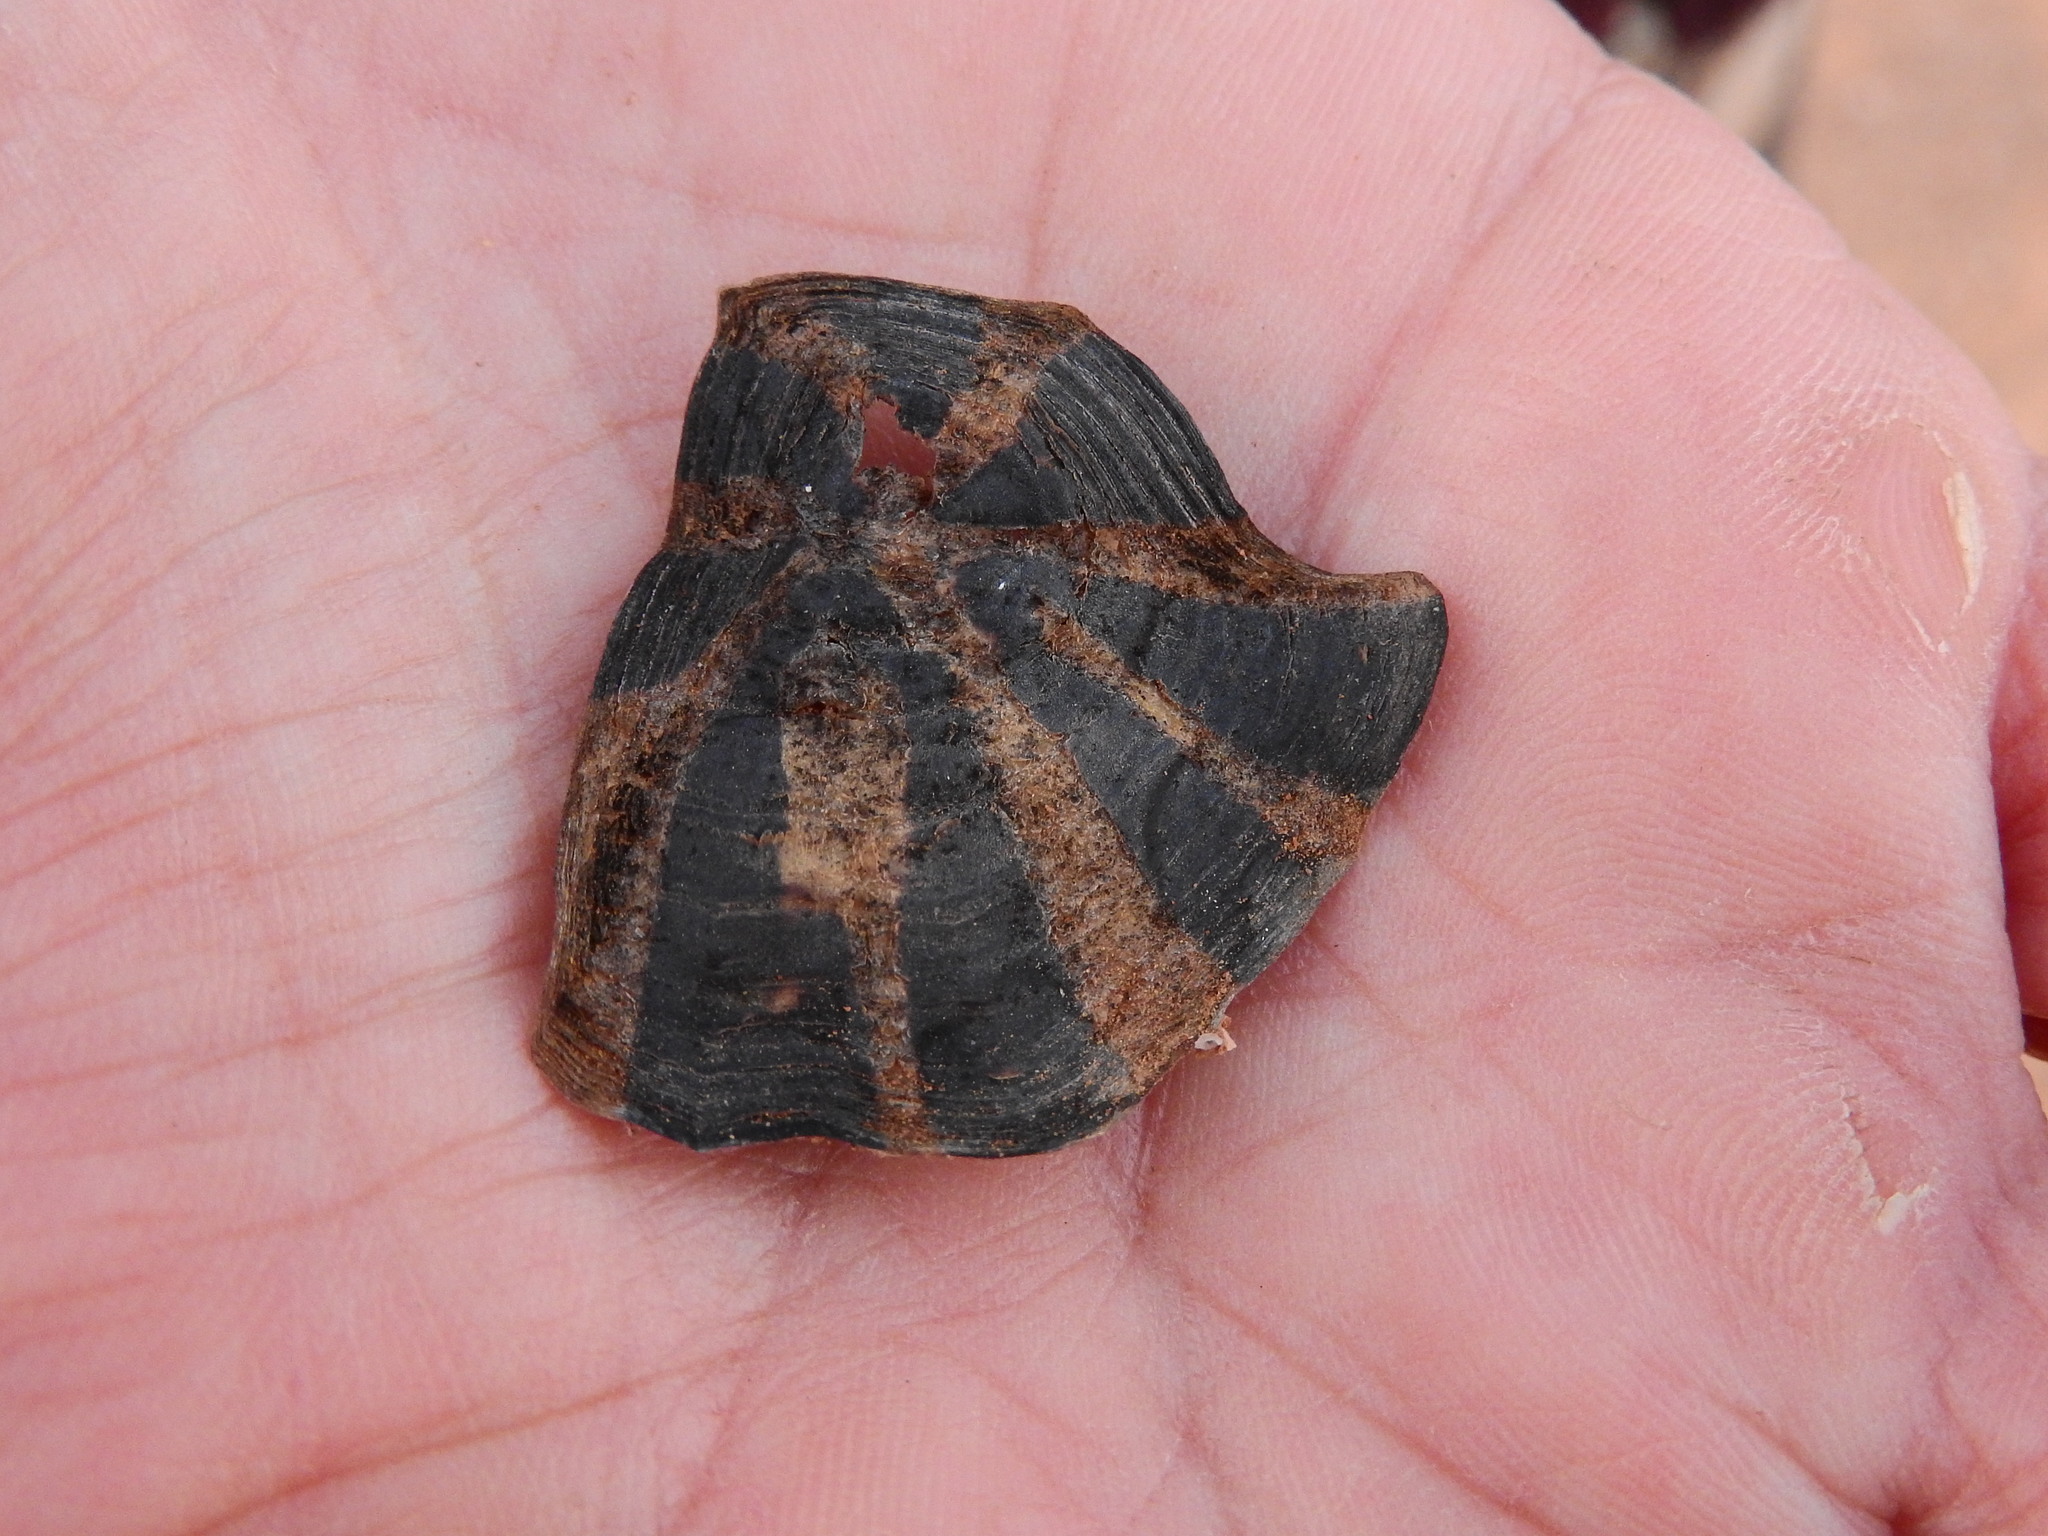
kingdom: Animalia
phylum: Chordata
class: Testudines
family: Testudinidae
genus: Psammobates
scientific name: Psammobates tentorius
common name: Tent tortoise
